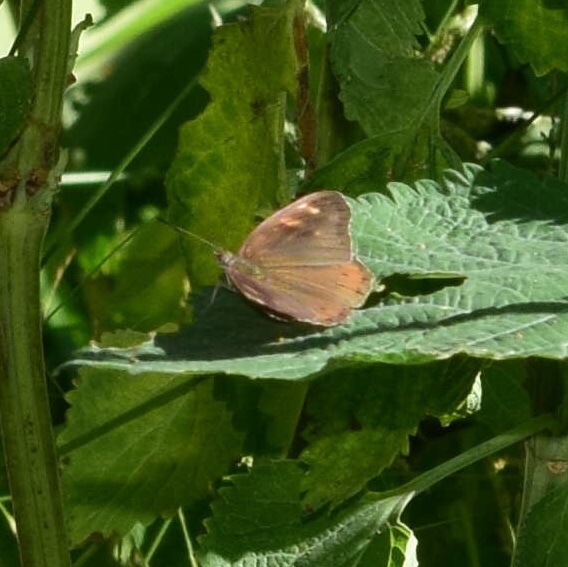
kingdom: Animalia
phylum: Arthropoda
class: Insecta
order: Lepidoptera
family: Nymphalidae
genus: Asterope
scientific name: Asterope boisduvali
